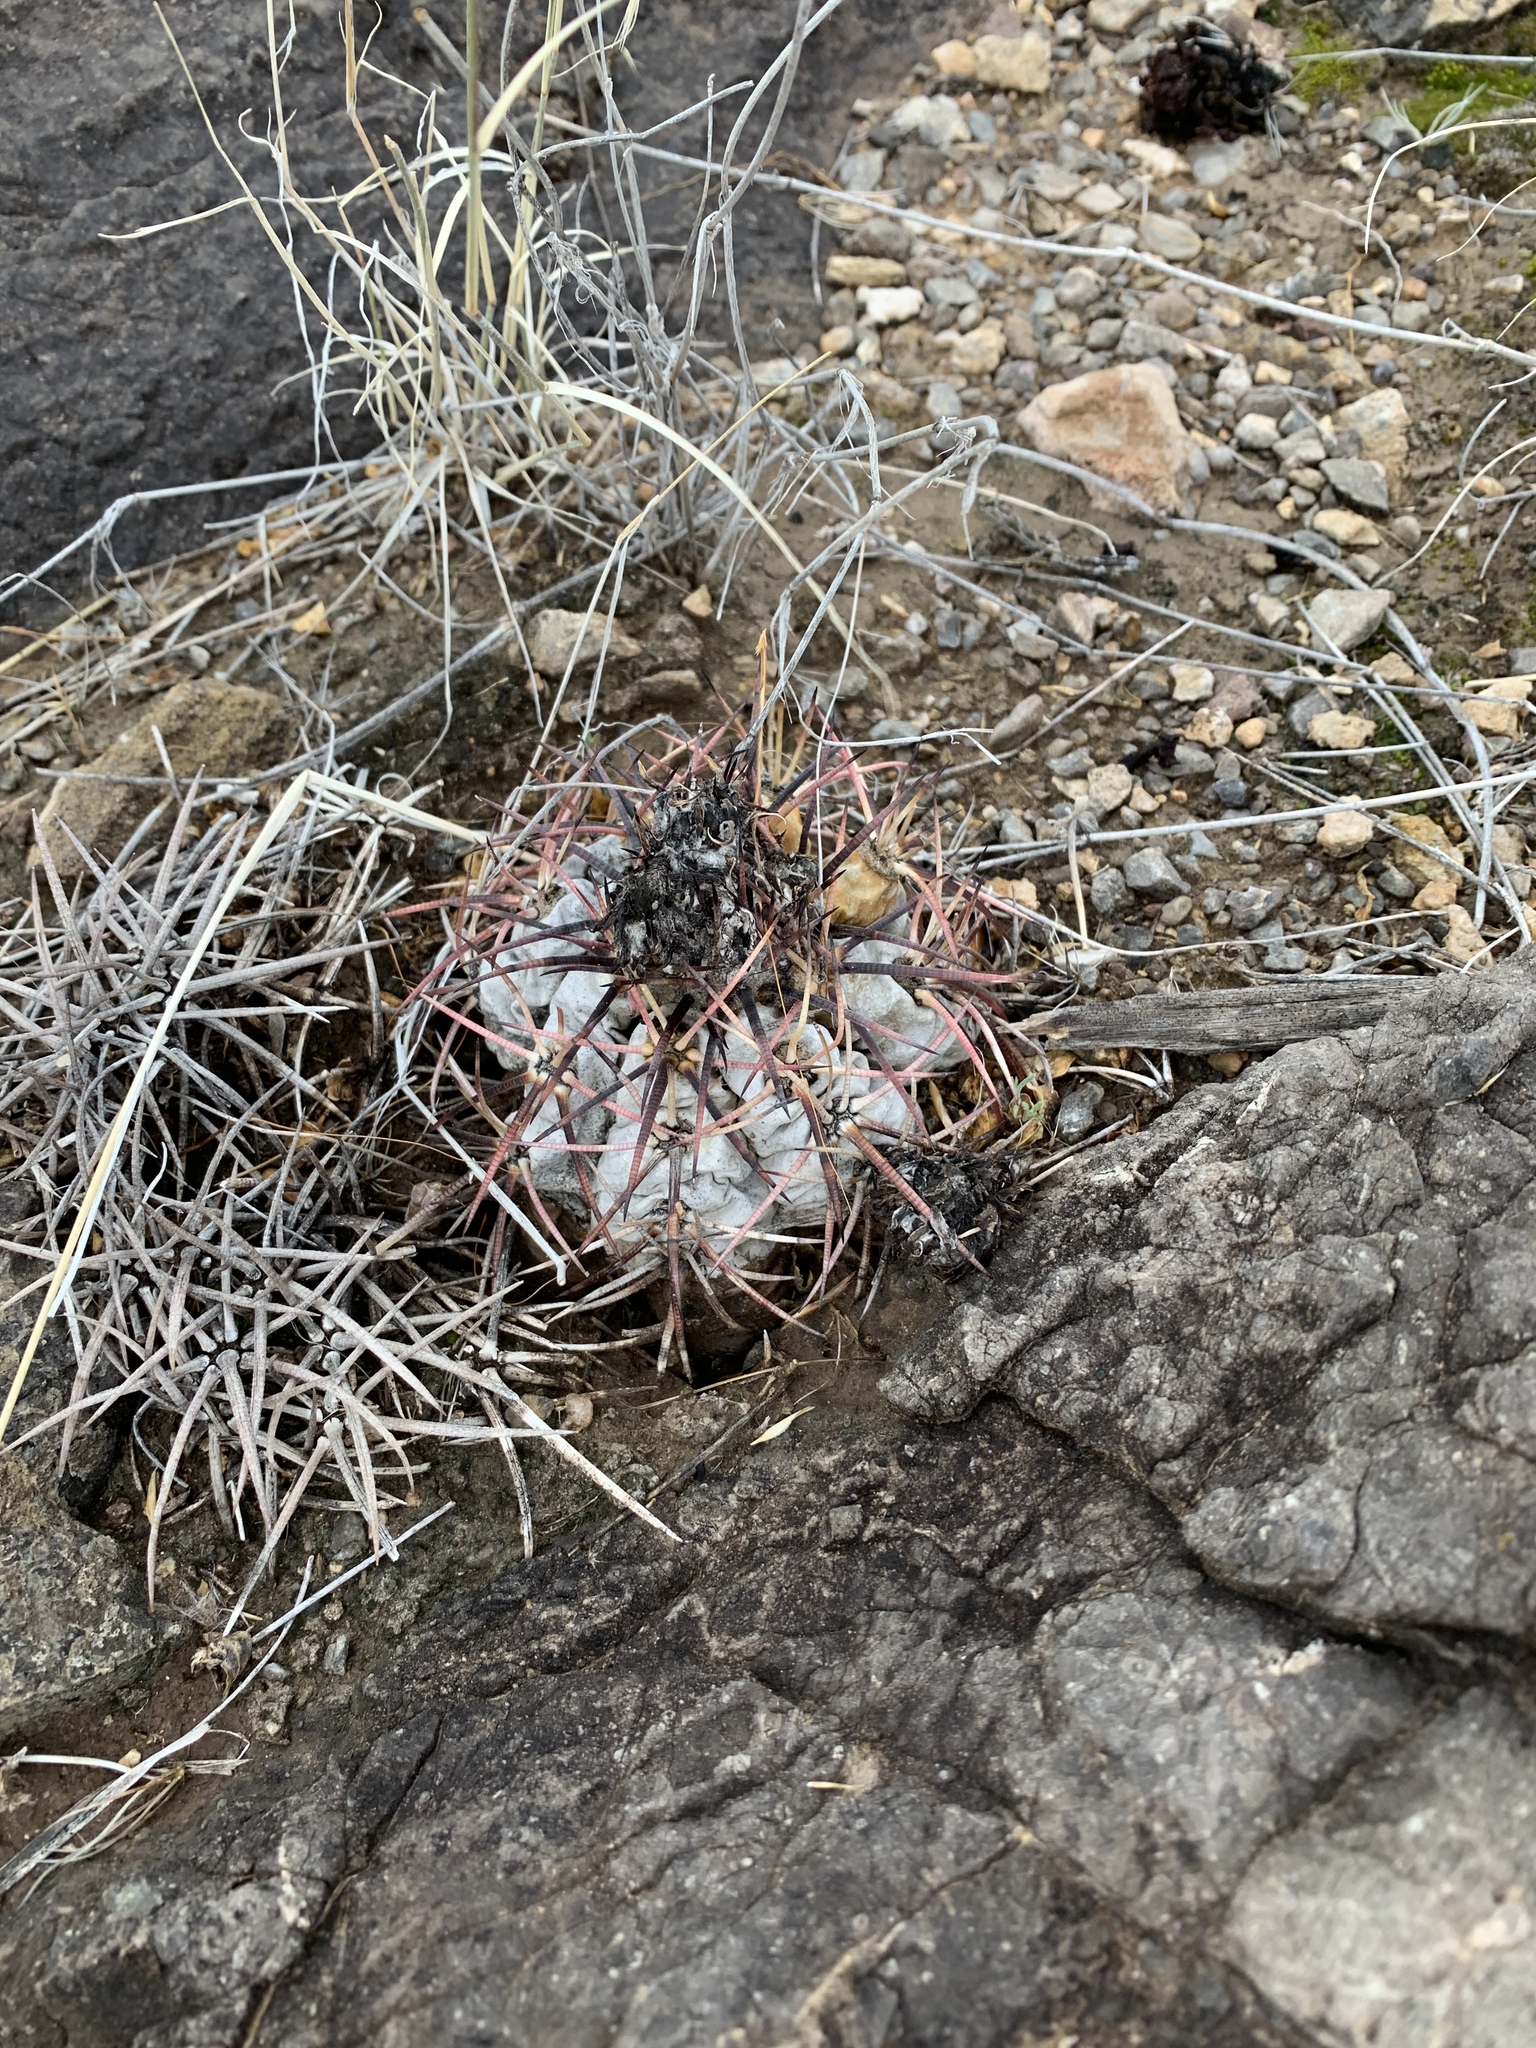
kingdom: Plantae
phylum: Tracheophyta
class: Magnoliopsida
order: Caryophyllales
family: Cactaceae
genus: Echinocactus
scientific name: Echinocactus horizonthalonius
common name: Devilshead
